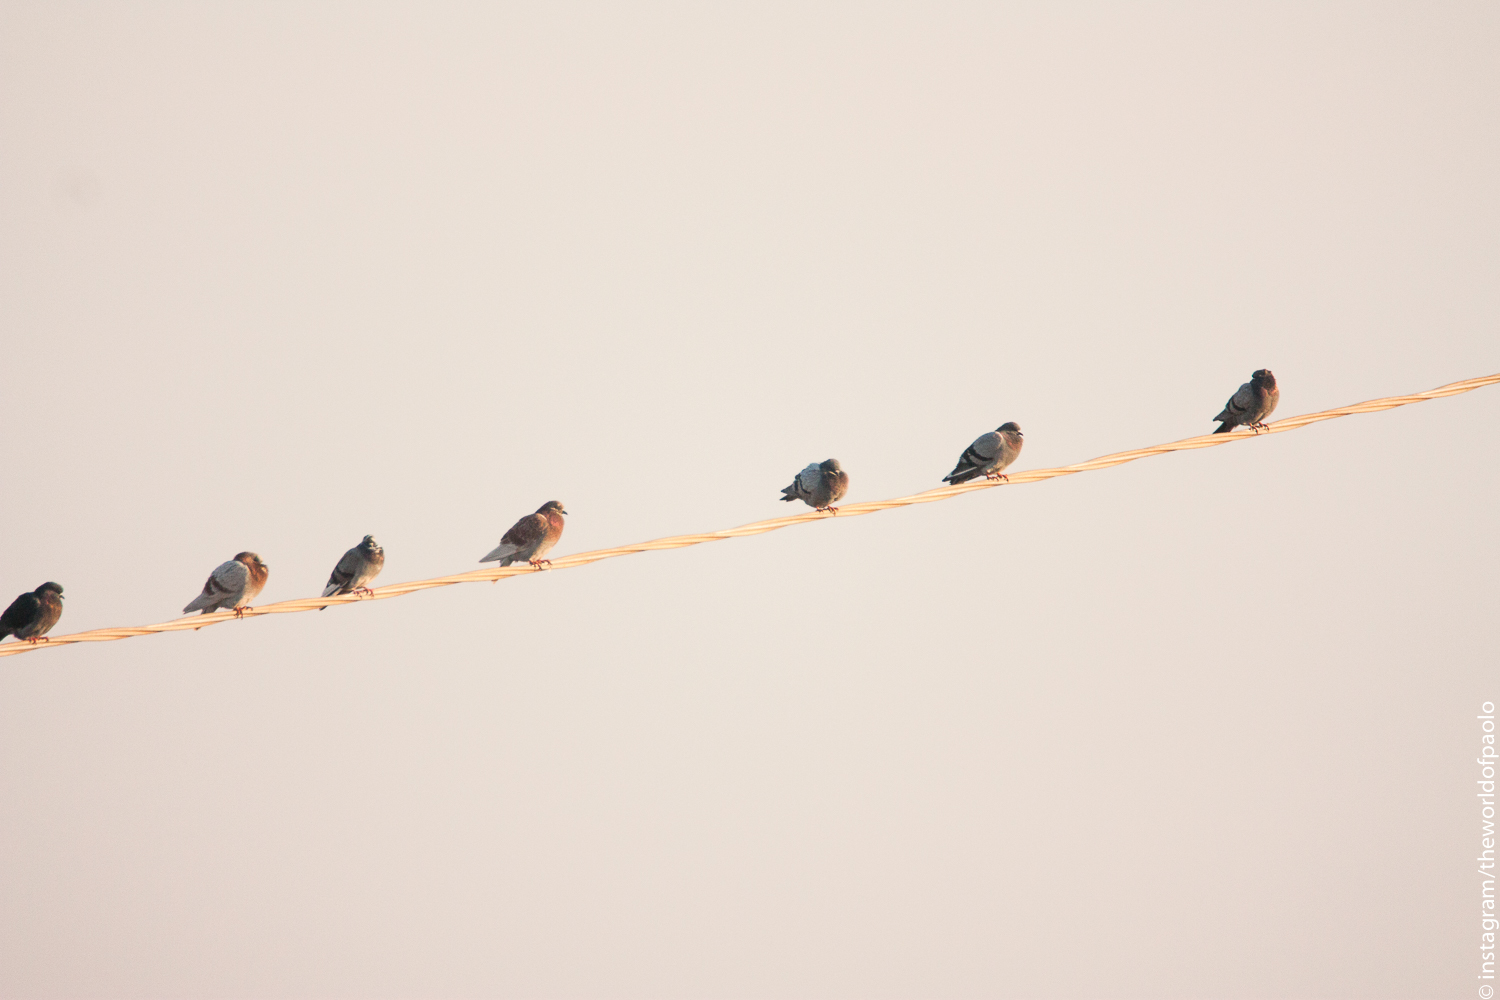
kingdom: Animalia
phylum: Chordata
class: Aves
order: Columbiformes
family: Columbidae
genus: Columba
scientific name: Columba livia
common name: Rock pigeon
